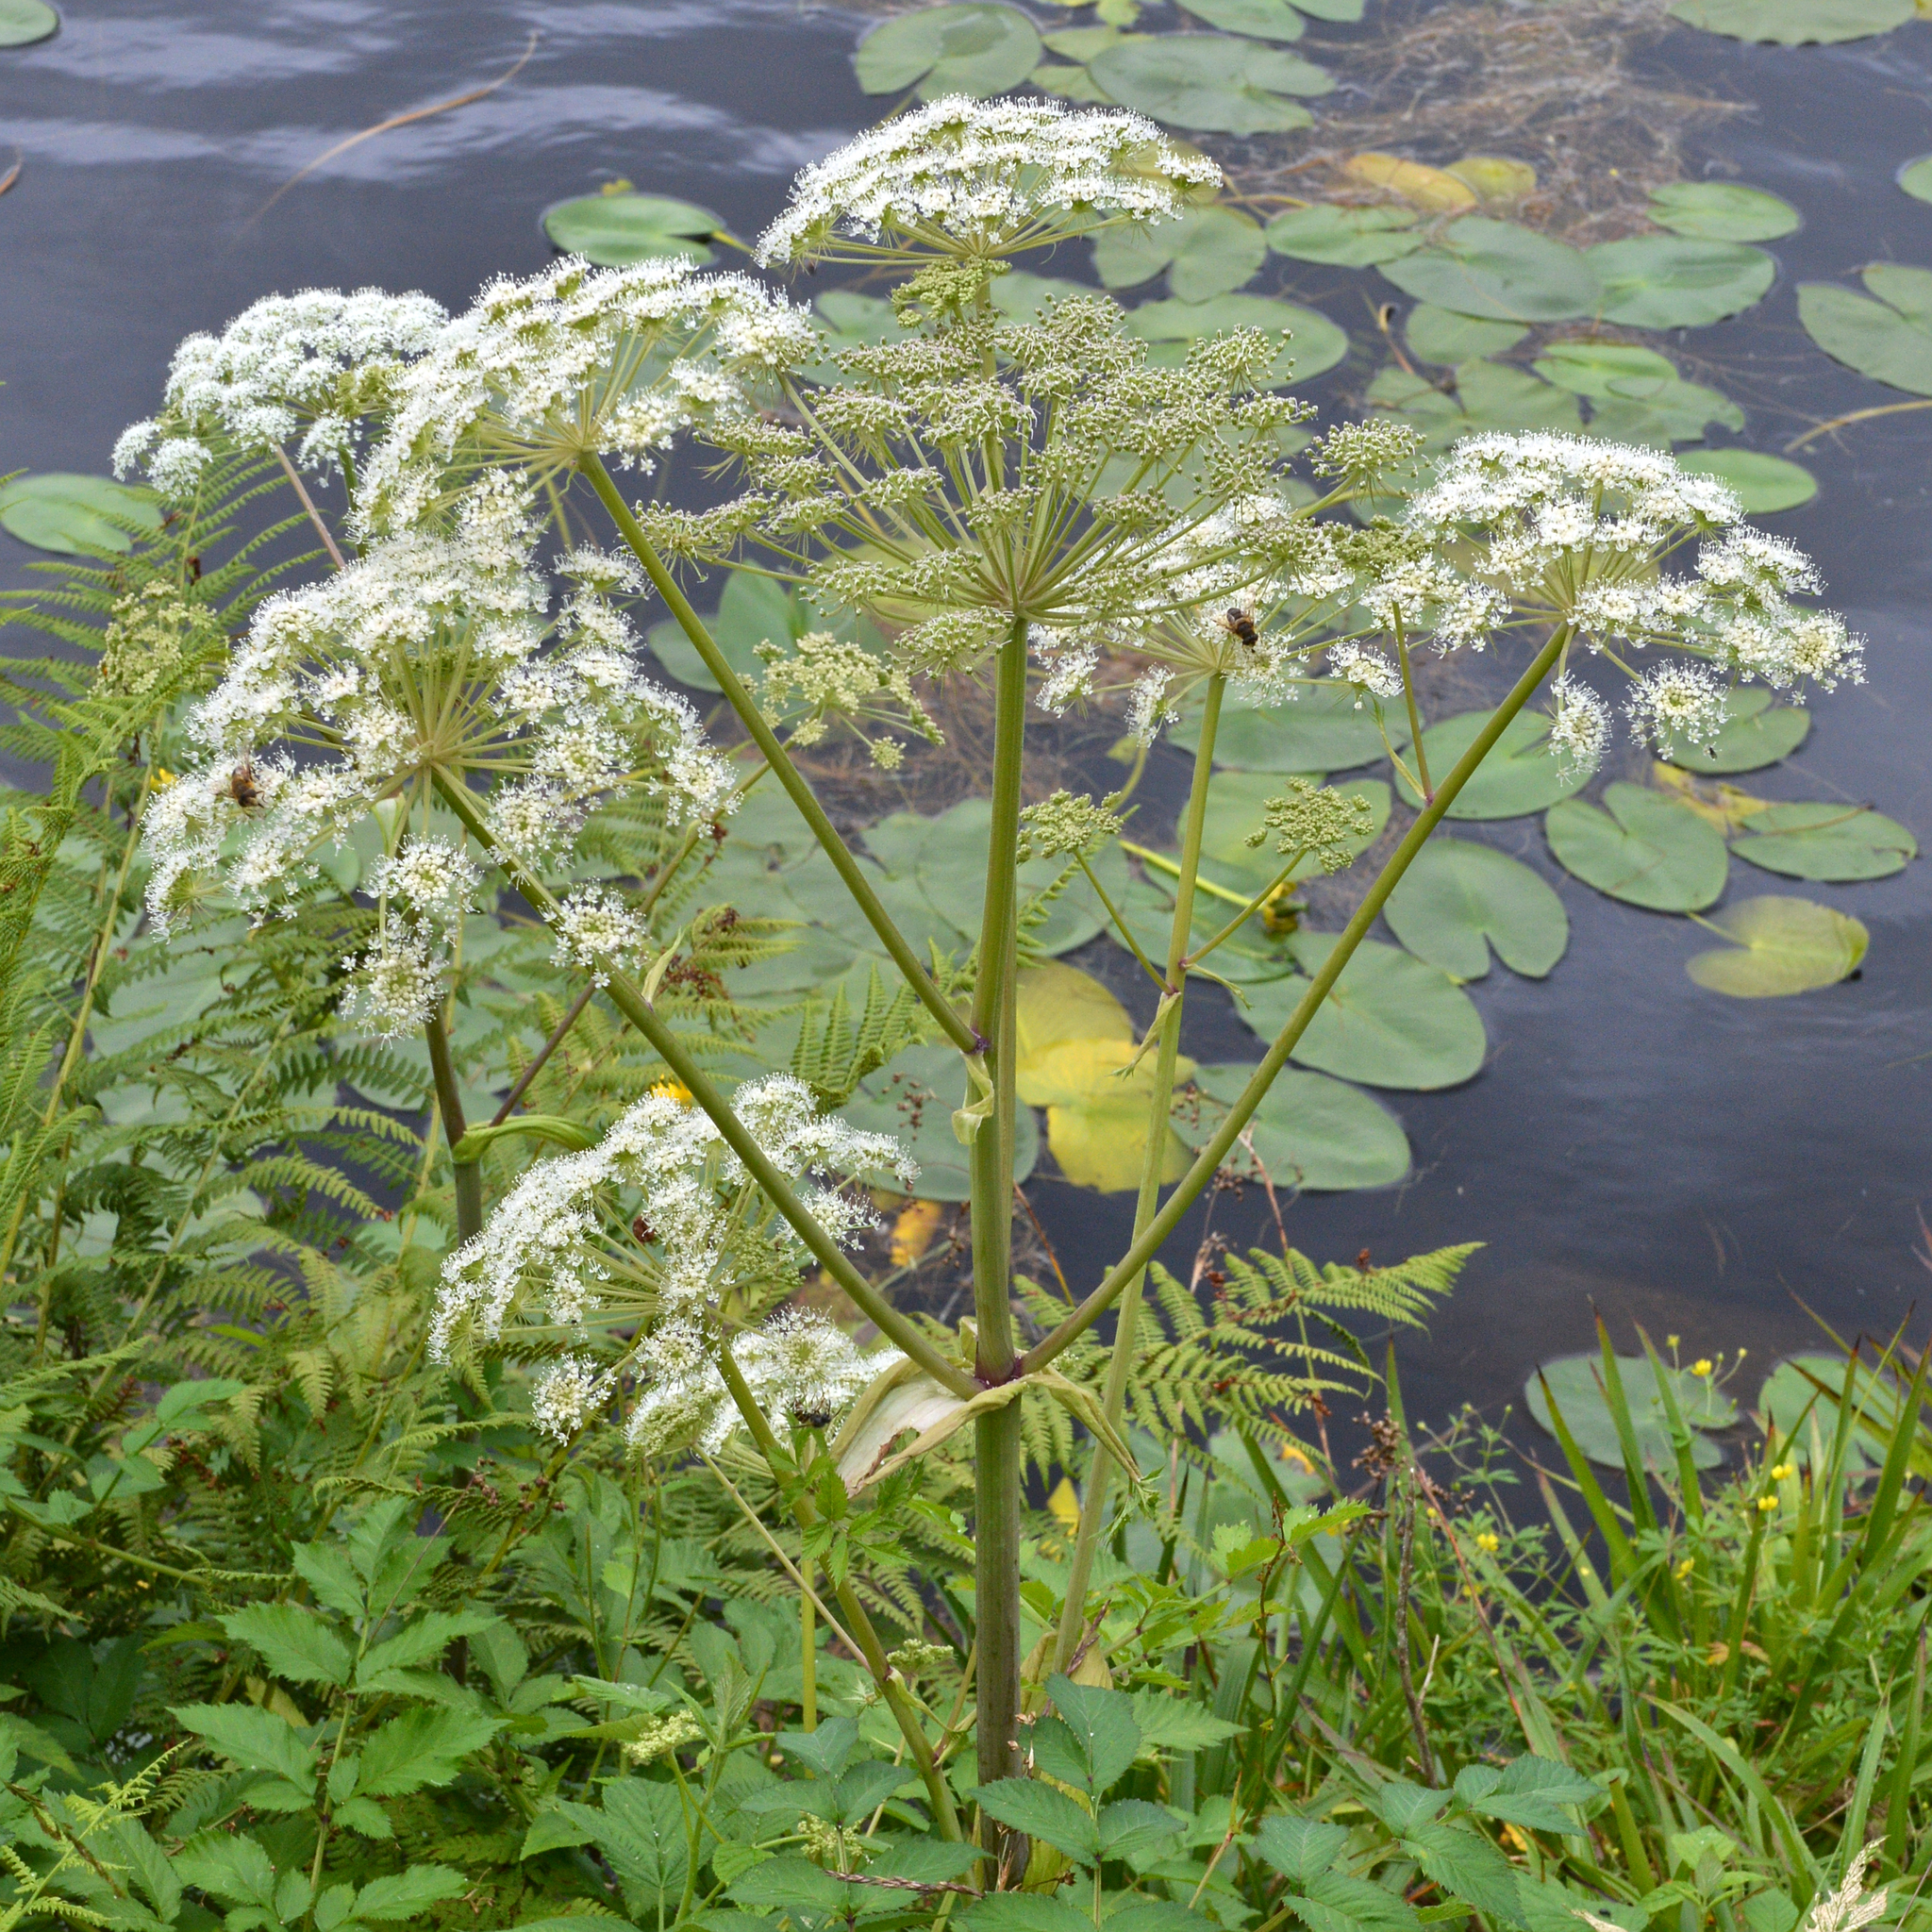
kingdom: Plantae
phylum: Tracheophyta
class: Magnoliopsida
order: Apiales
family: Apiaceae
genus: Angelica
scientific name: Angelica sylvestris
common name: Wild angelica
